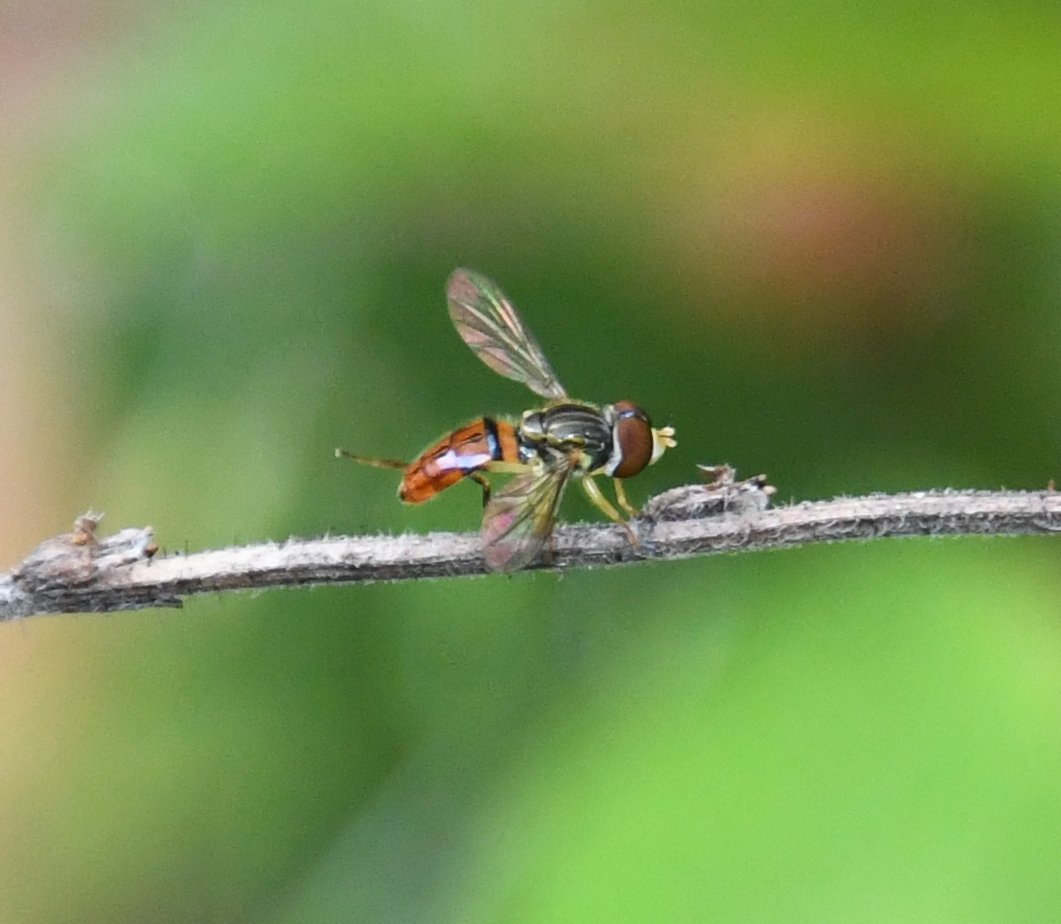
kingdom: Animalia
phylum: Arthropoda
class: Insecta
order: Diptera
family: Syrphidae
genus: Toxomerus
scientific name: Toxomerus boscii
